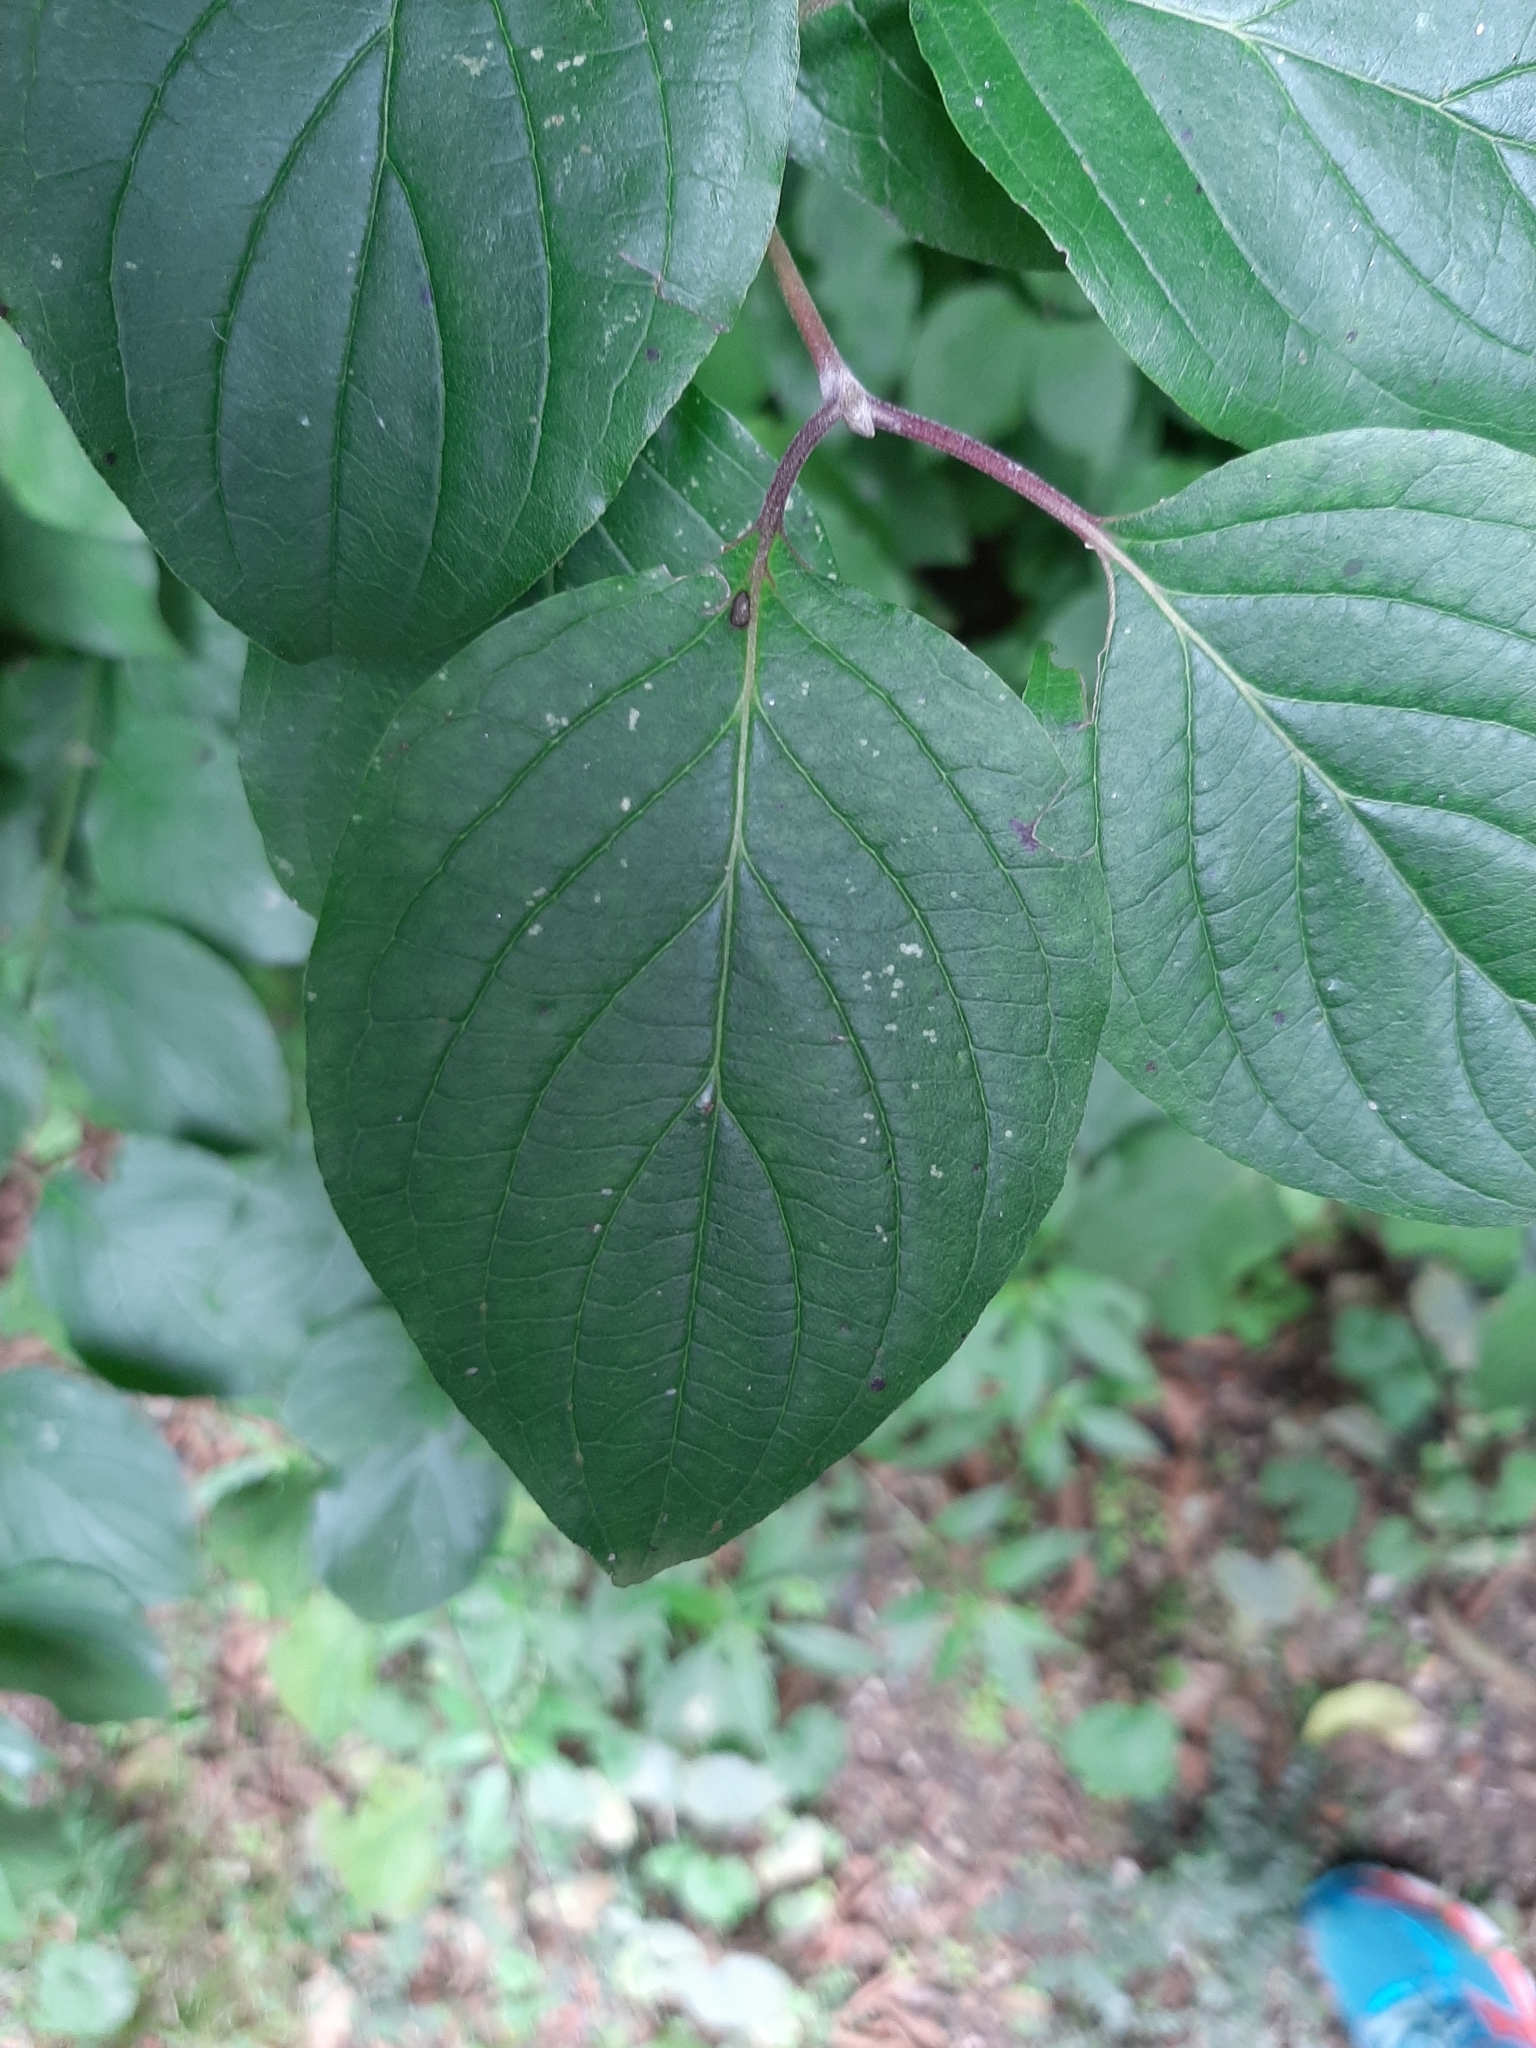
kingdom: Plantae
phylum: Tracheophyta
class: Magnoliopsida
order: Cornales
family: Cornaceae
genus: Cornus
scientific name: Cornus mas
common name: Cornelian-cherry
